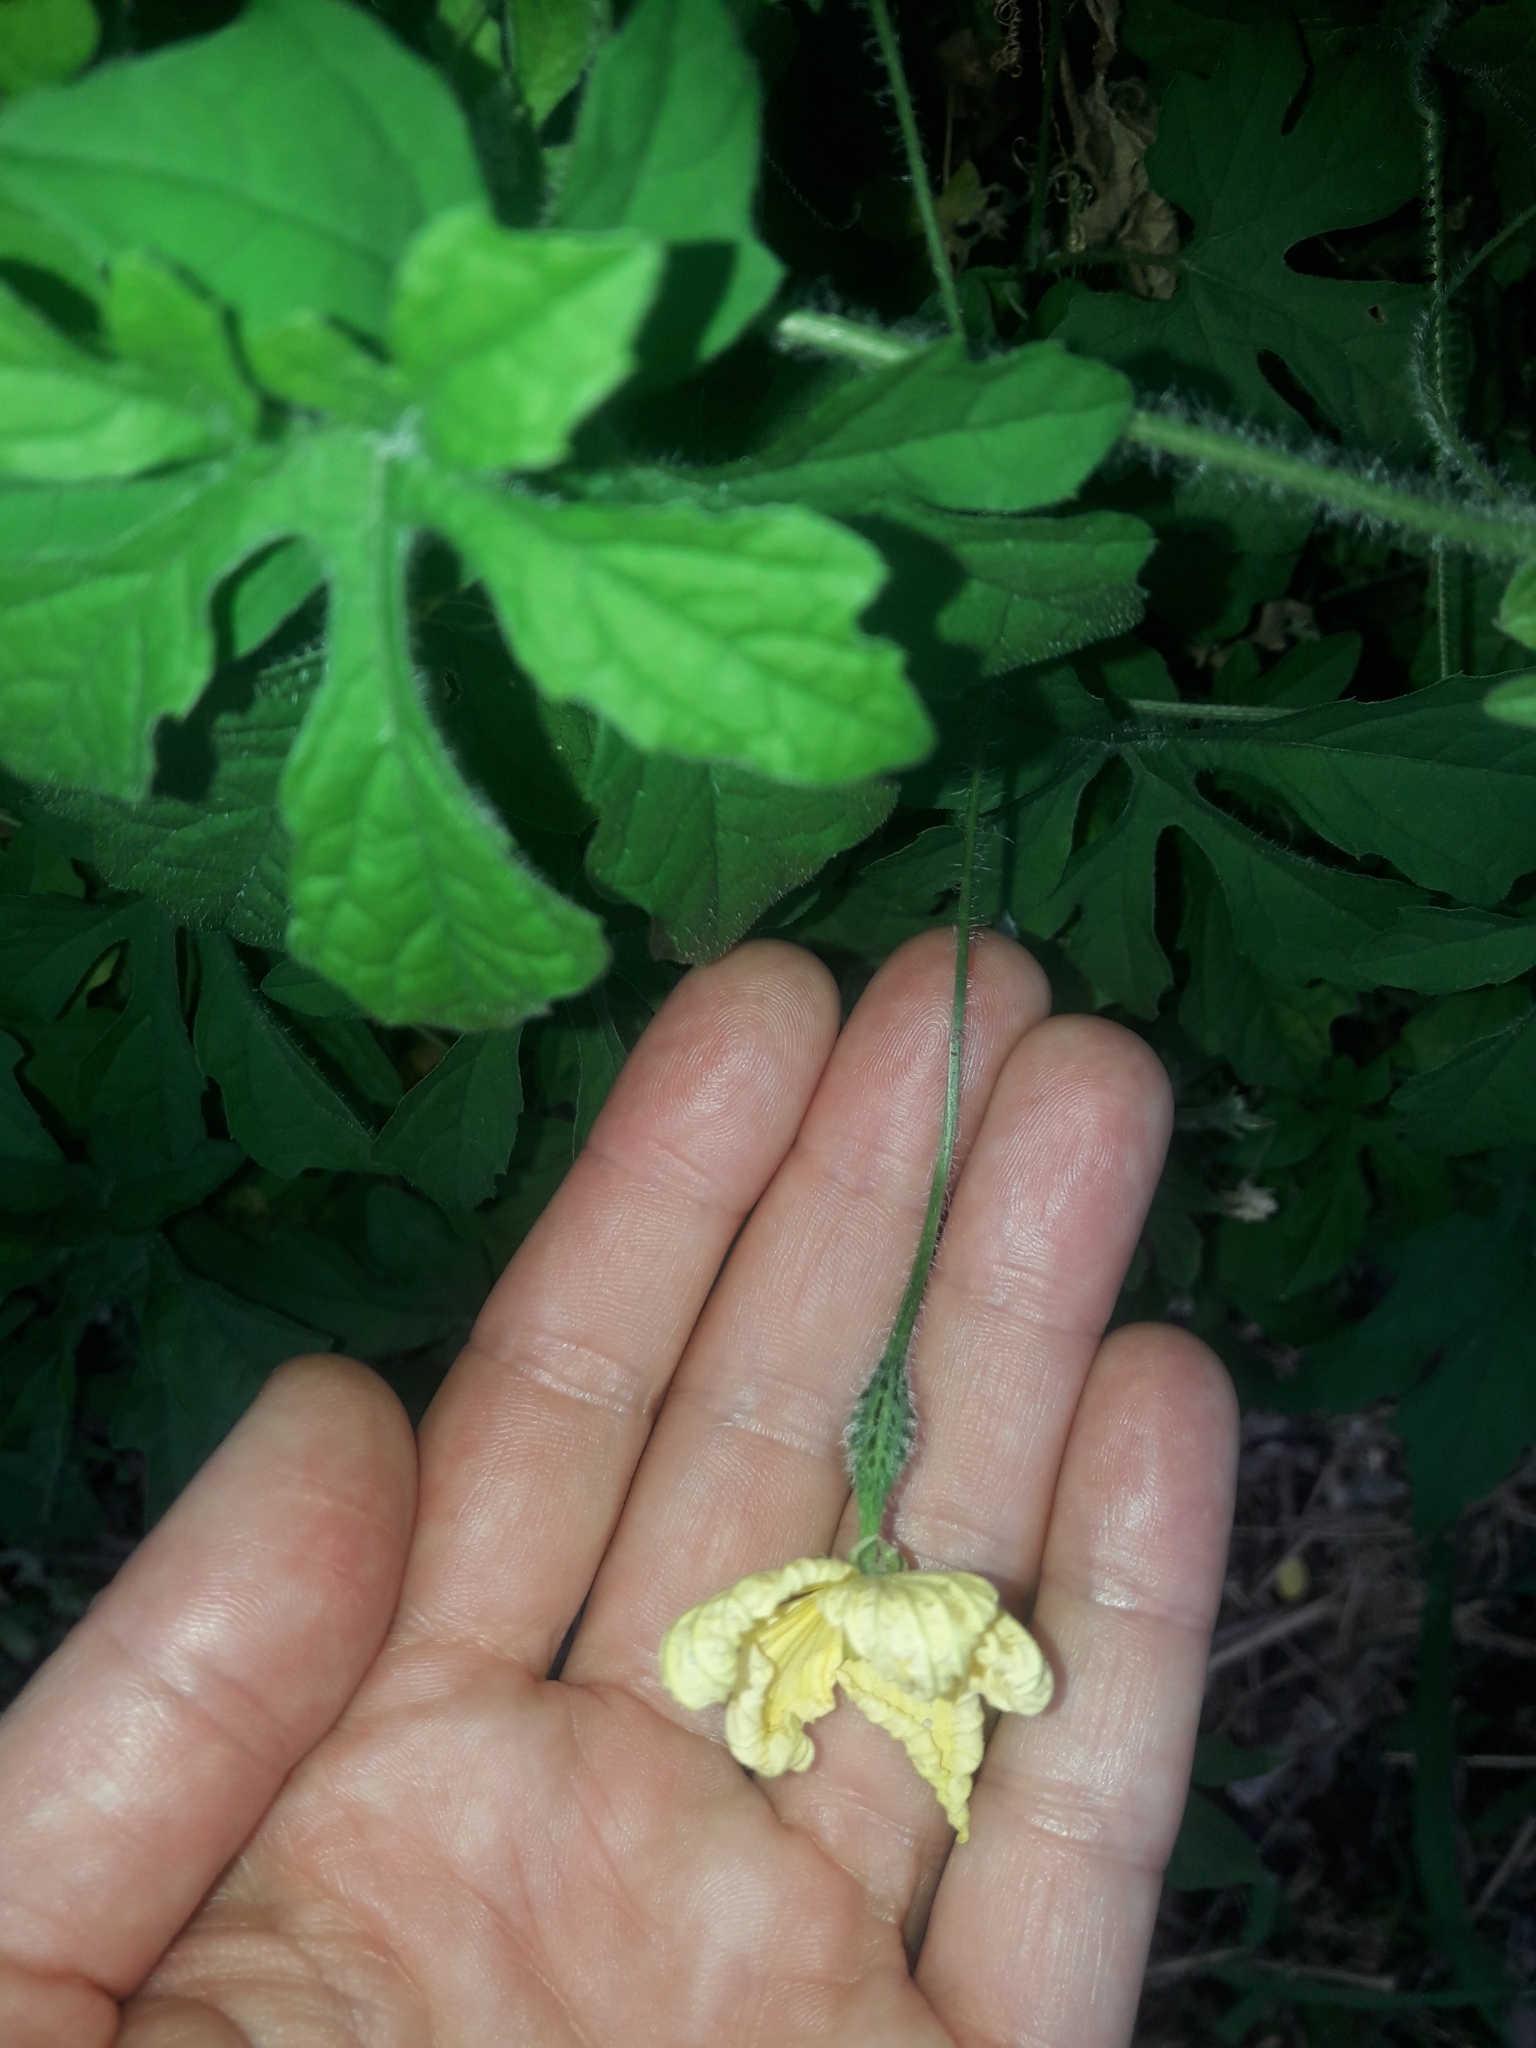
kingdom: Plantae
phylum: Tracheophyta
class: Magnoliopsida
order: Cucurbitales
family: Cucurbitaceae
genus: Momordica
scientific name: Momordica charantia
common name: Balsampear
